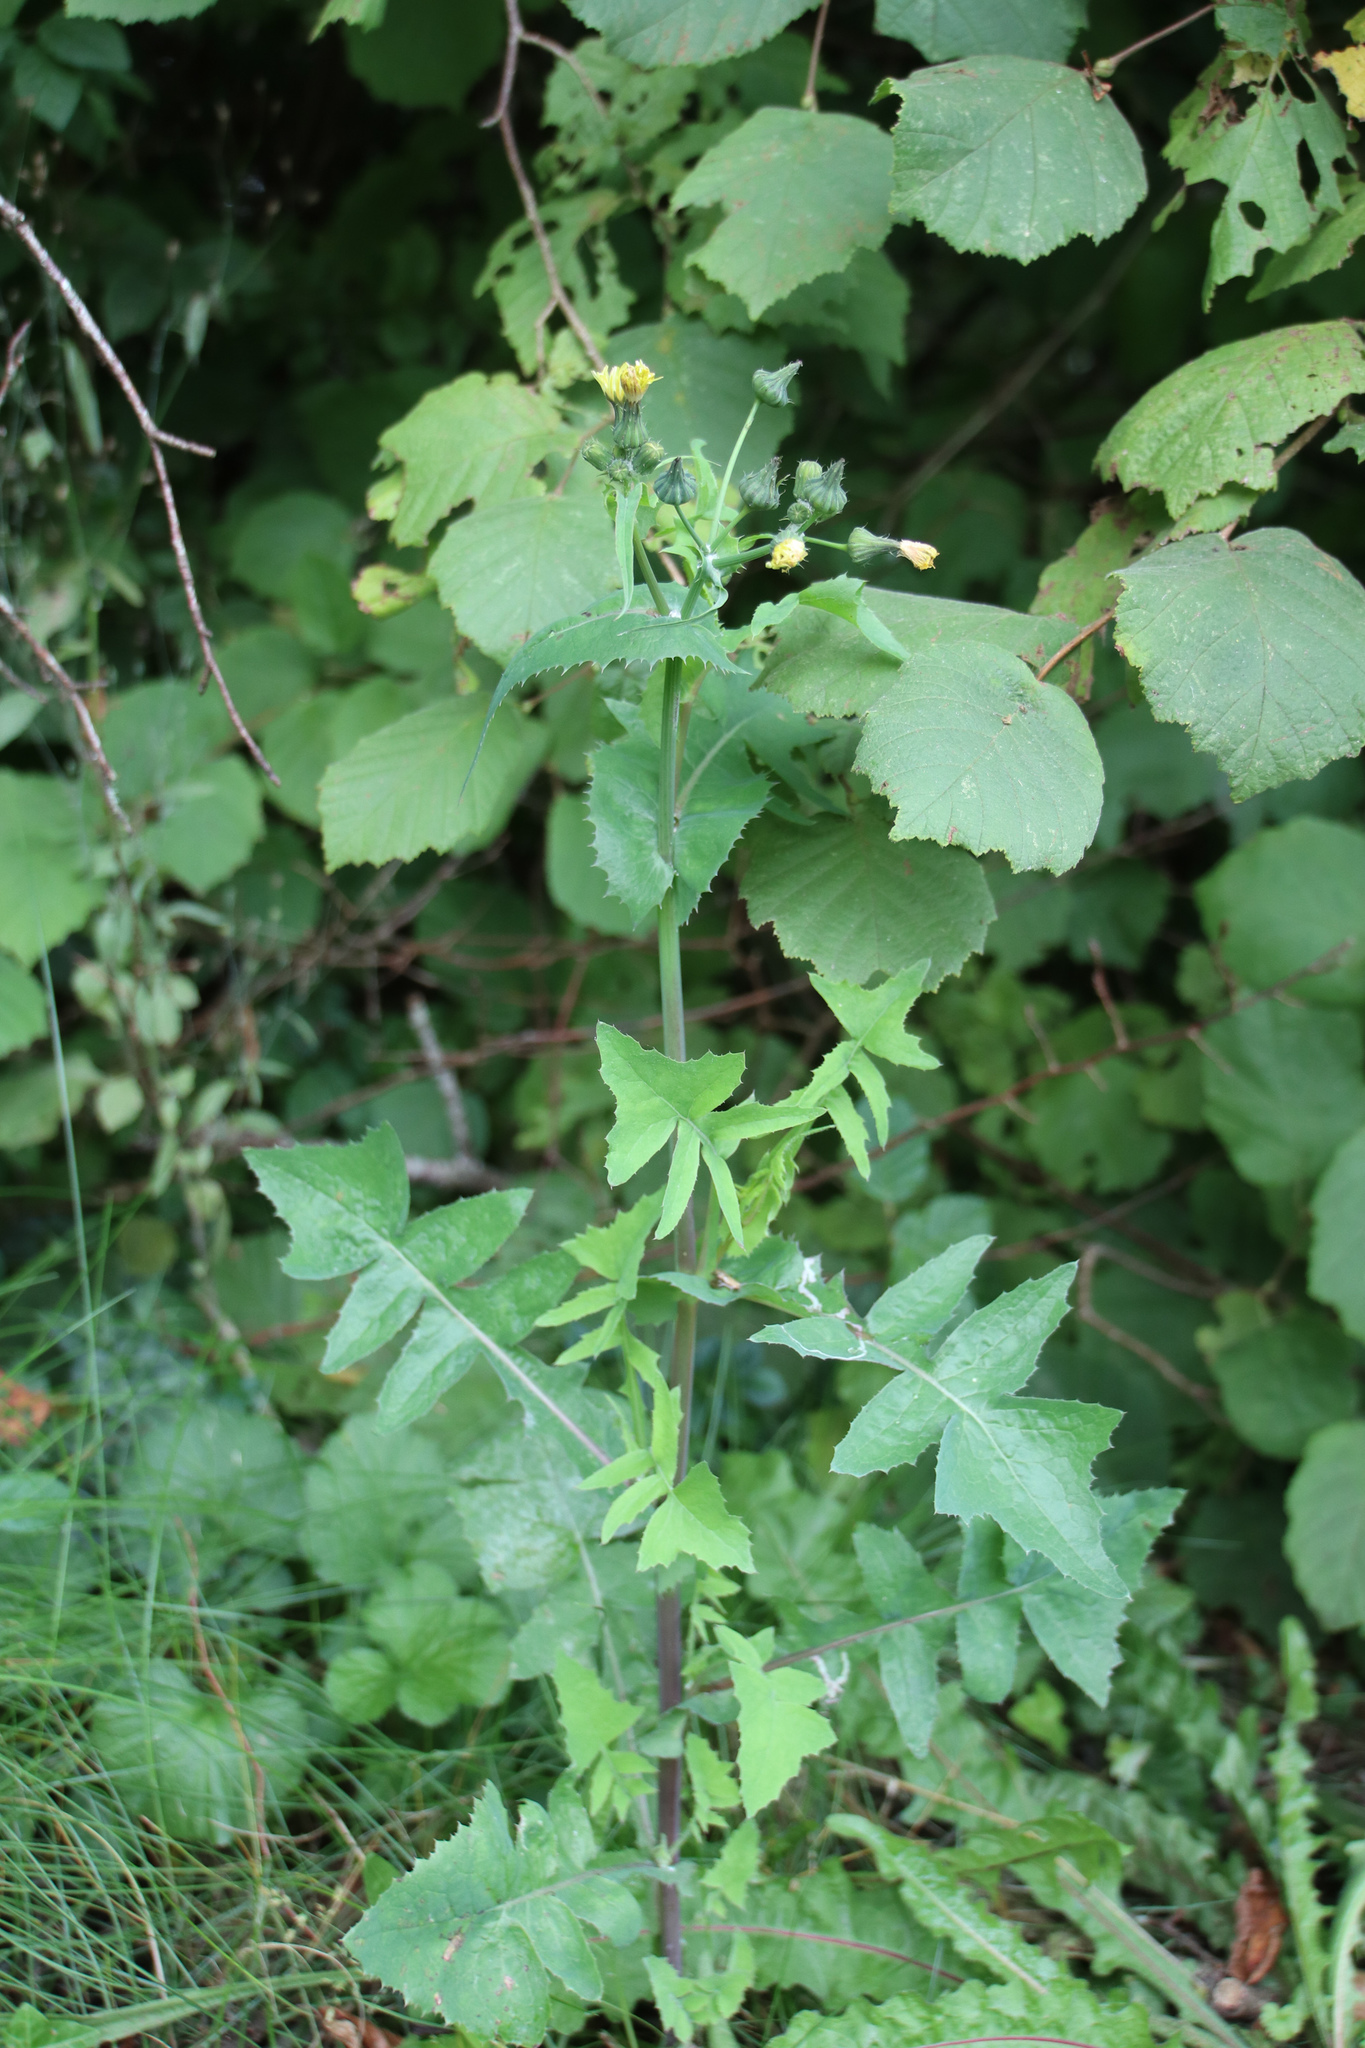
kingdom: Plantae
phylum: Tracheophyta
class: Magnoliopsida
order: Asterales
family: Asteraceae
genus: Sonchus
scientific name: Sonchus oleraceus
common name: Common sowthistle
